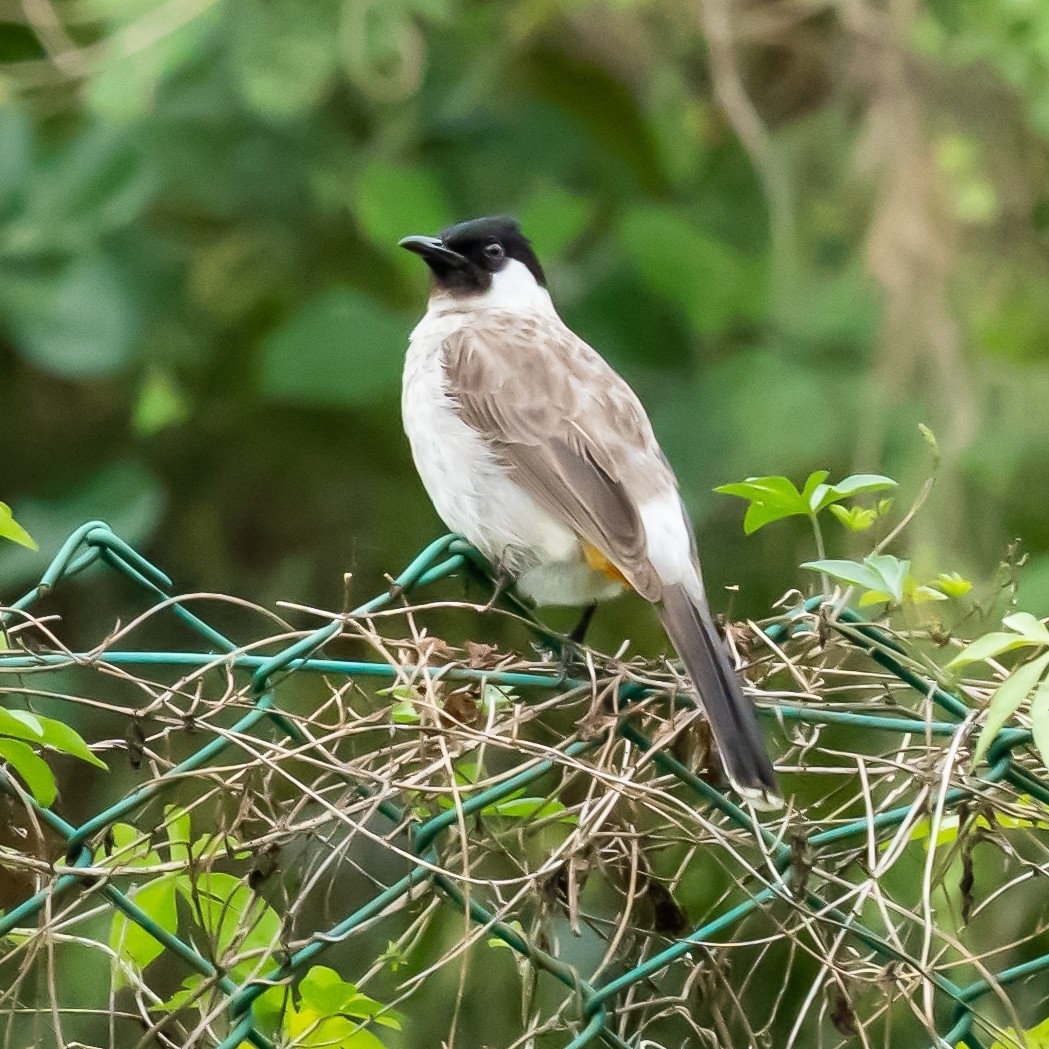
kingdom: Animalia
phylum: Chordata
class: Aves
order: Passeriformes
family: Pycnonotidae
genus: Pycnonotus
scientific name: Pycnonotus aurigaster
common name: Sooty-headed bulbul
